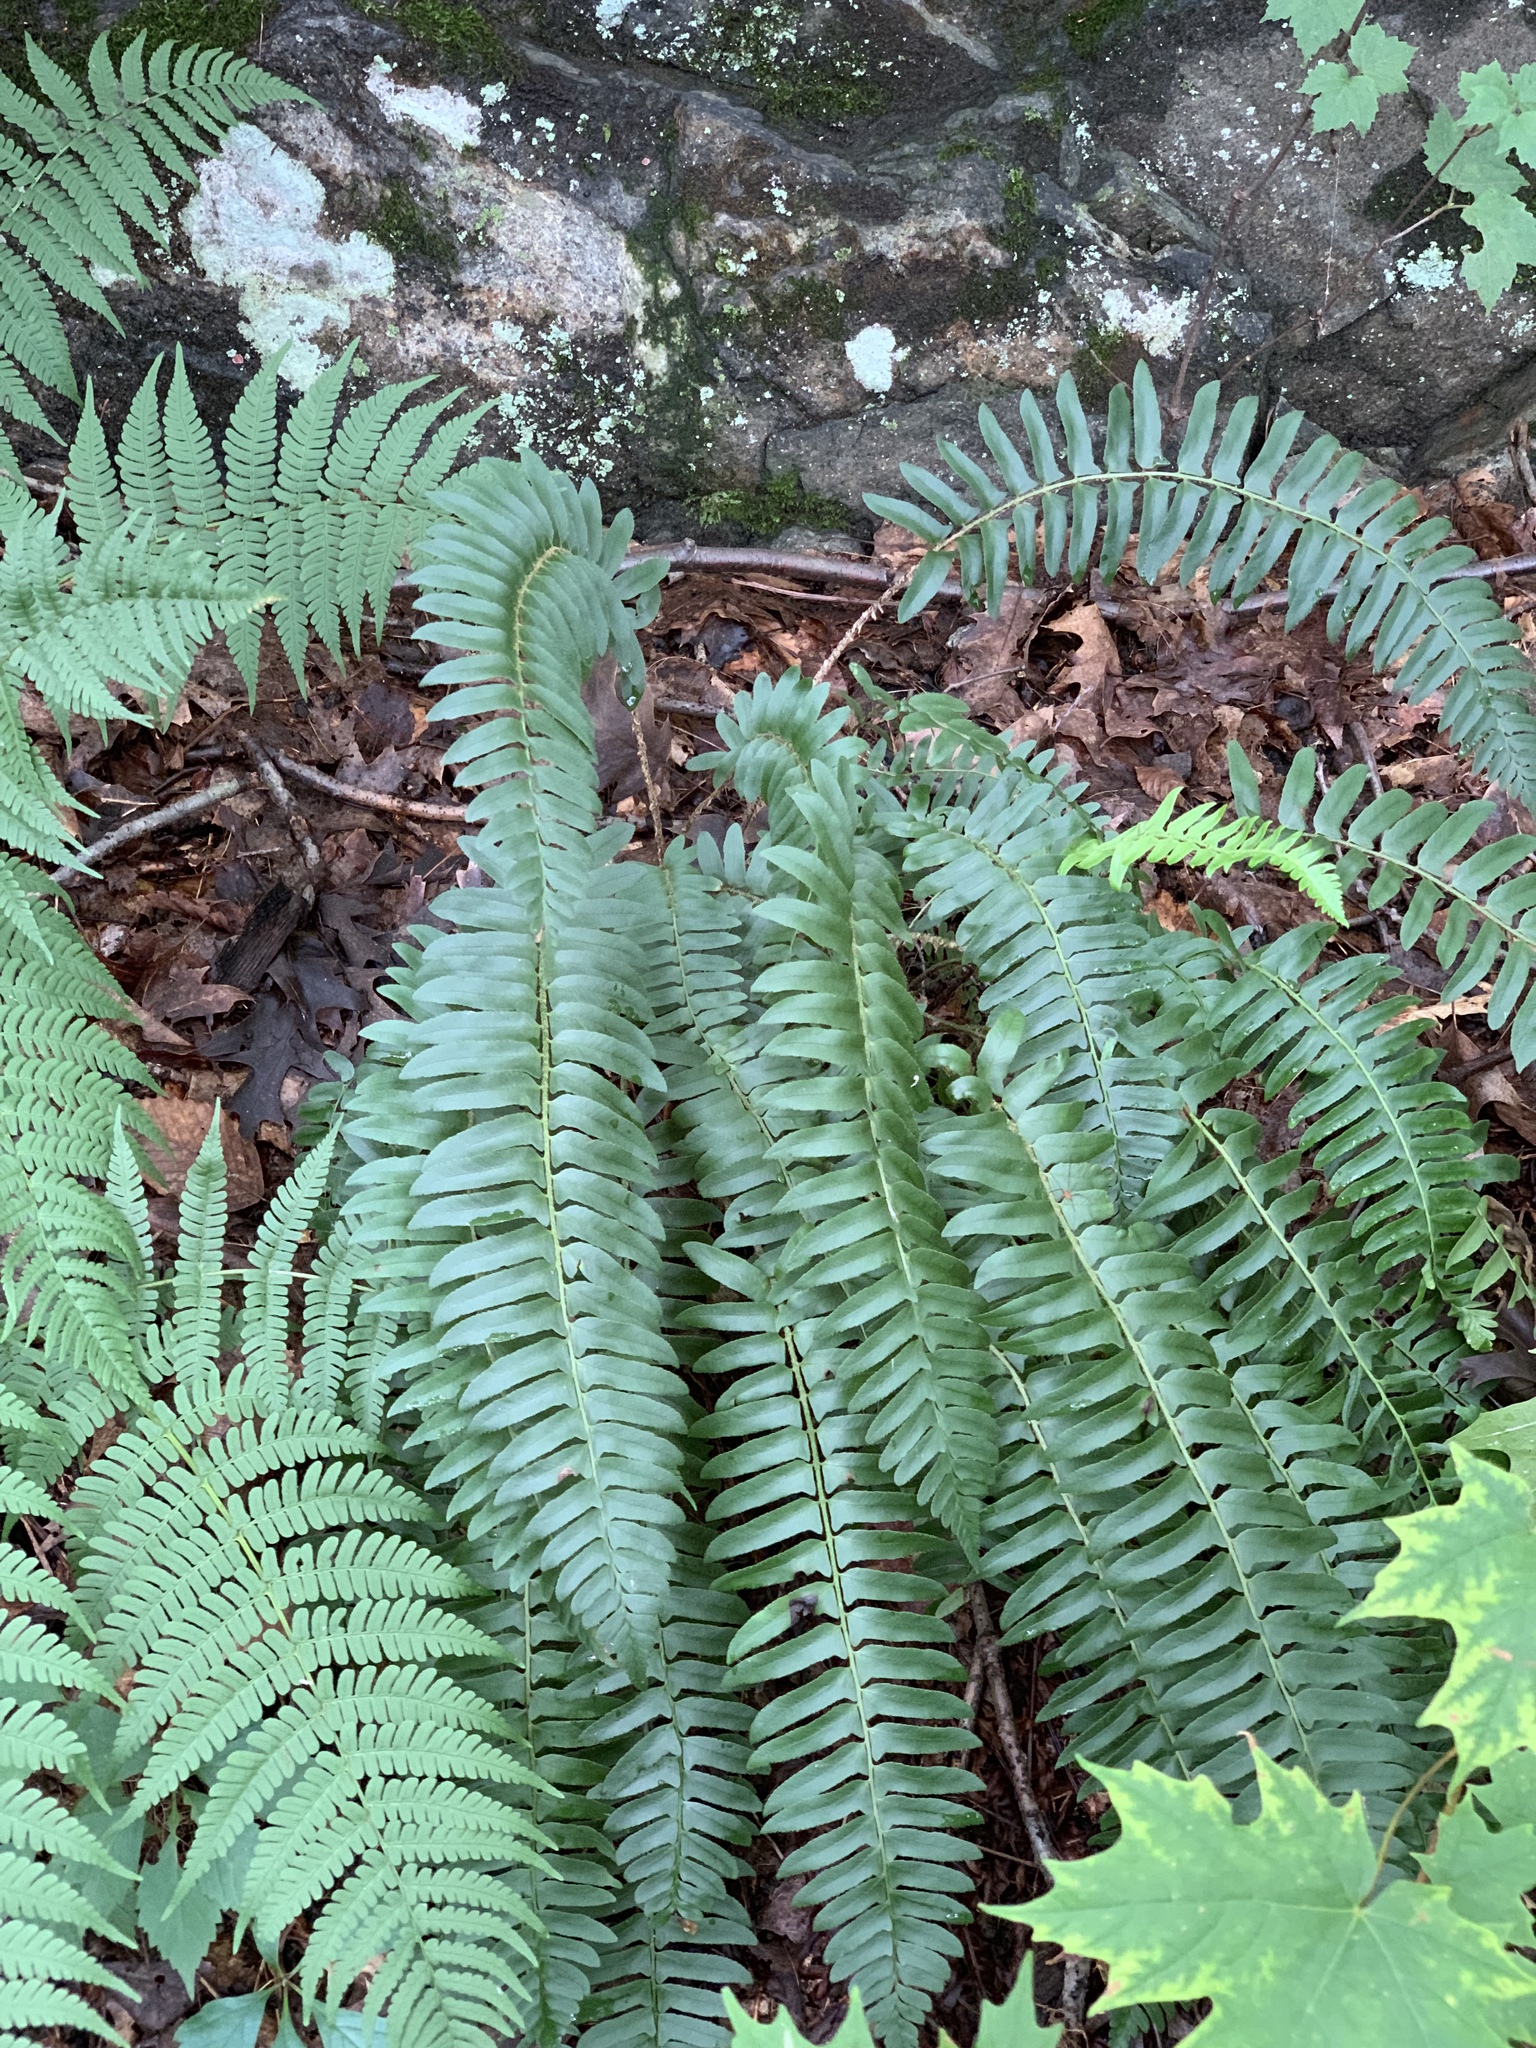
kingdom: Plantae
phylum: Tracheophyta
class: Polypodiopsida
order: Polypodiales
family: Dryopteridaceae
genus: Polystichum
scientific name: Polystichum acrostichoides
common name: Christmas fern
